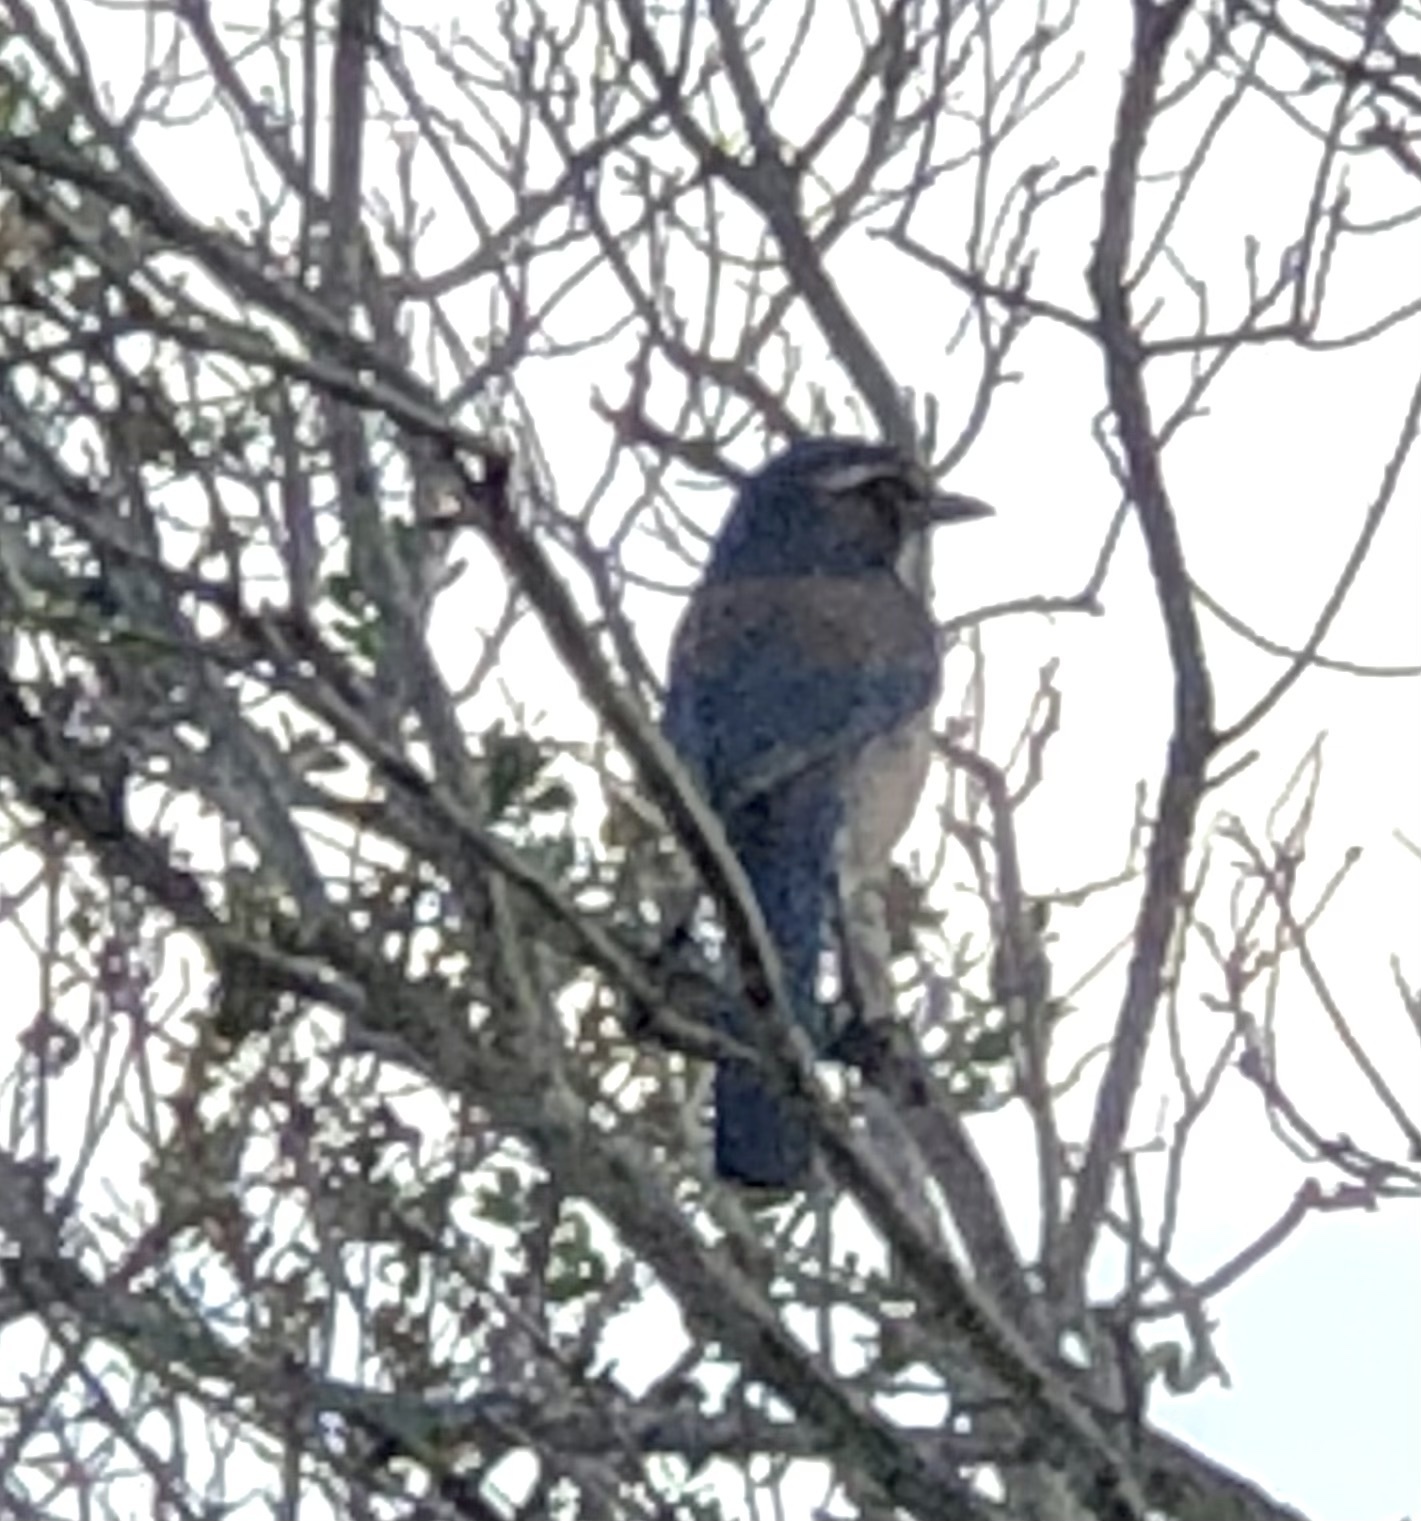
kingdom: Animalia
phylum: Chordata
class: Aves
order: Passeriformes
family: Corvidae
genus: Aphelocoma
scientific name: Aphelocoma californica
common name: California scrub-jay
